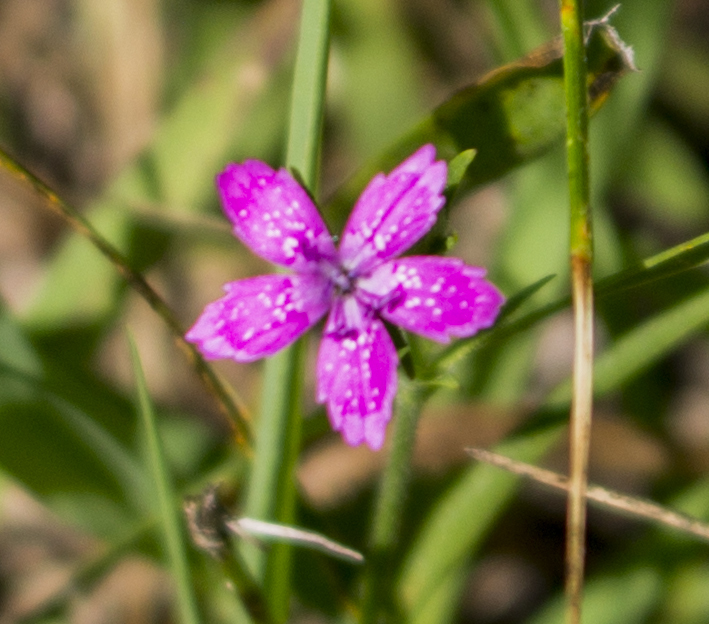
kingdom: Plantae
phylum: Tracheophyta
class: Magnoliopsida
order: Caryophyllales
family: Caryophyllaceae
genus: Dianthus
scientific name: Dianthus armeria
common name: Deptford pink
